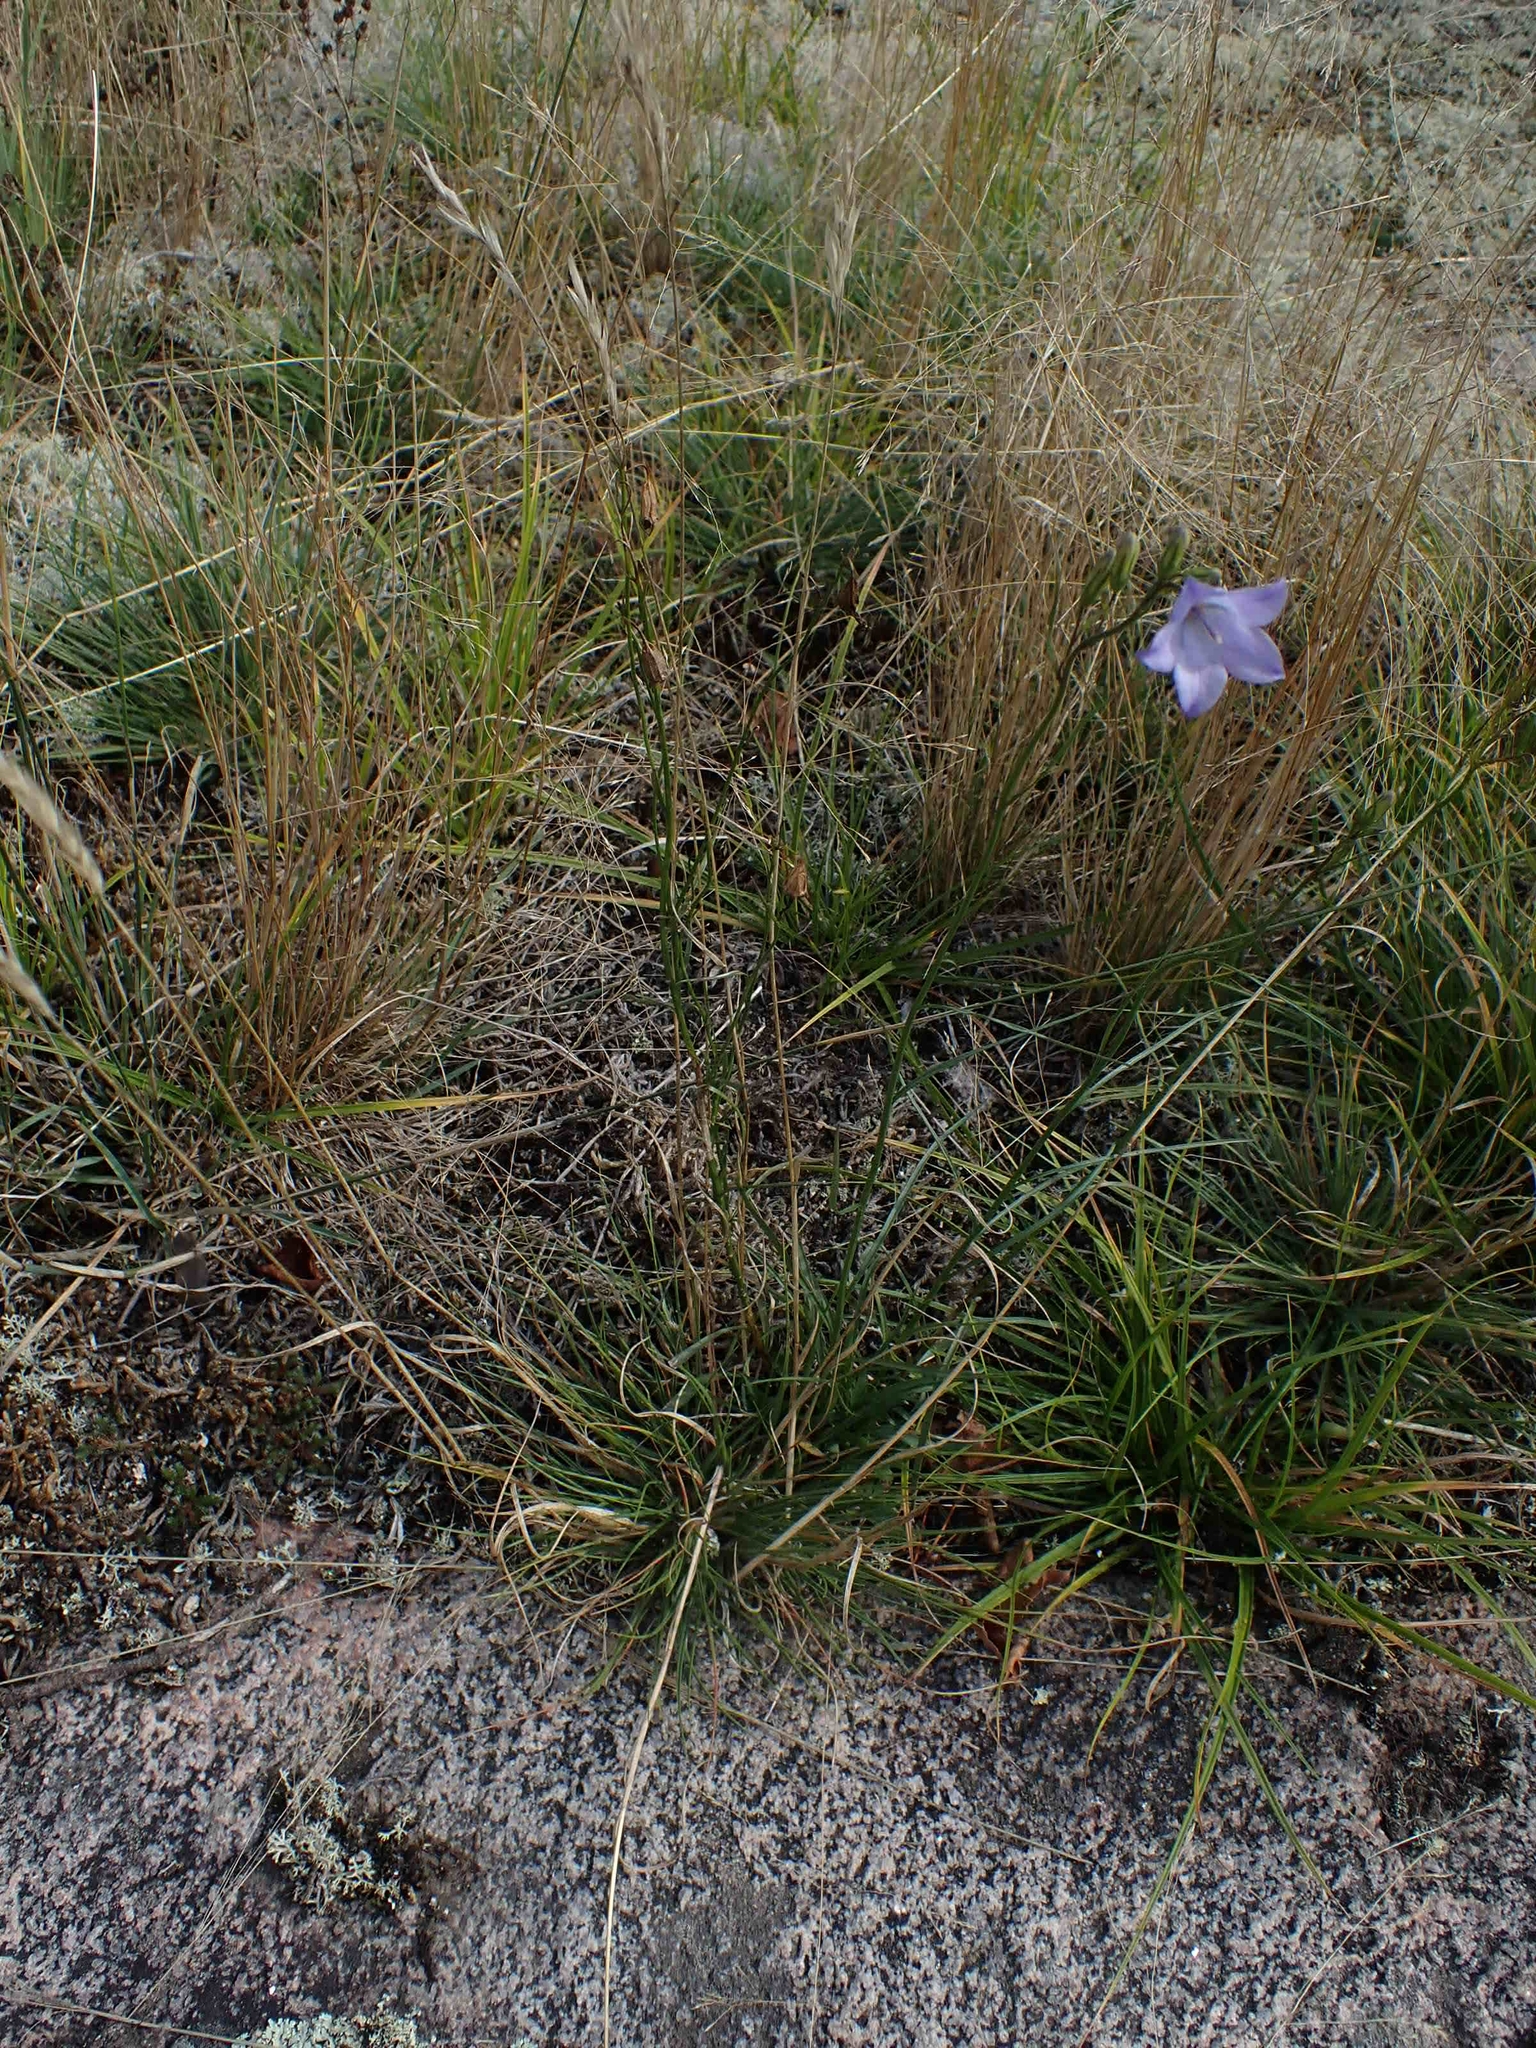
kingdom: Plantae
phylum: Tracheophyta
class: Magnoliopsida
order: Asterales
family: Campanulaceae
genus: Campanula
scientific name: Campanula petiolata
